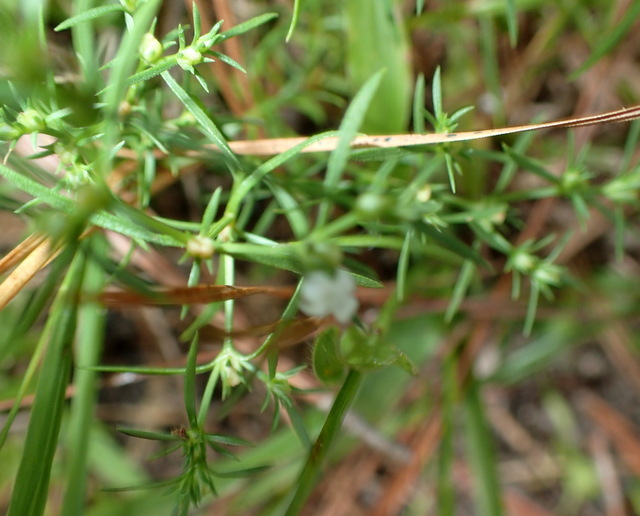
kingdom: Plantae
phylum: Tracheophyta
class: Magnoliopsida
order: Lamiales
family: Tetrachondraceae
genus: Polypremum
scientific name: Polypremum procumbens
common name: Juniper-leaf
